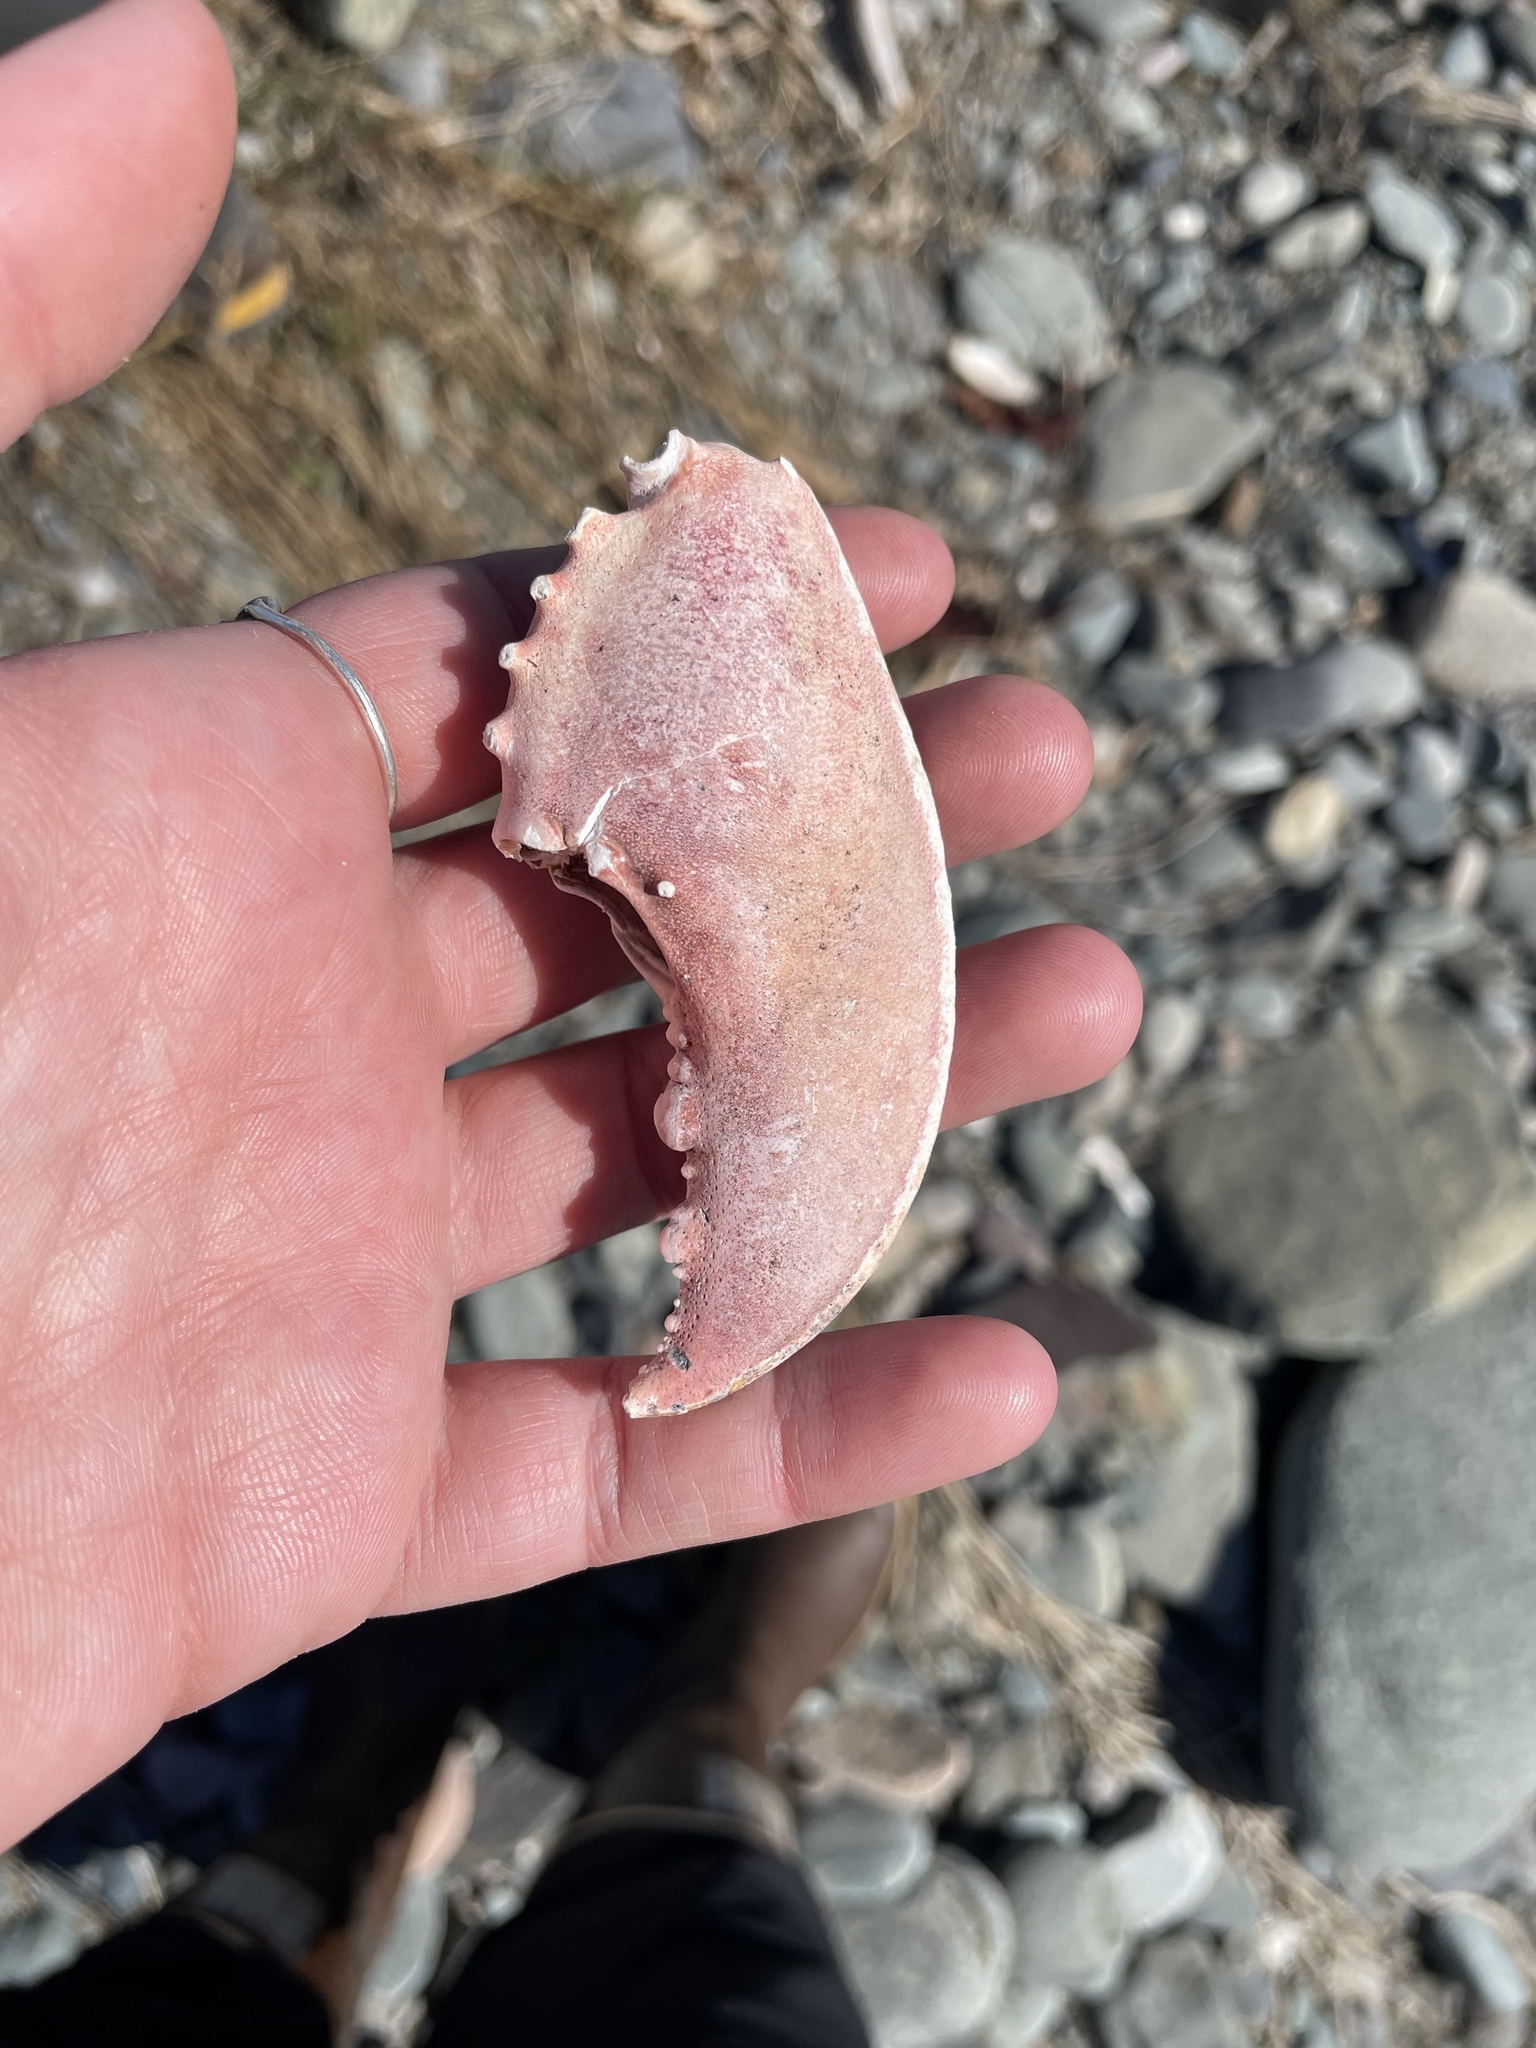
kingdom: Animalia
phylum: Arthropoda
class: Malacostraca
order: Decapoda
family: Nephropidae
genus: Homarus
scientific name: Homarus americanus
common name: American lobster
